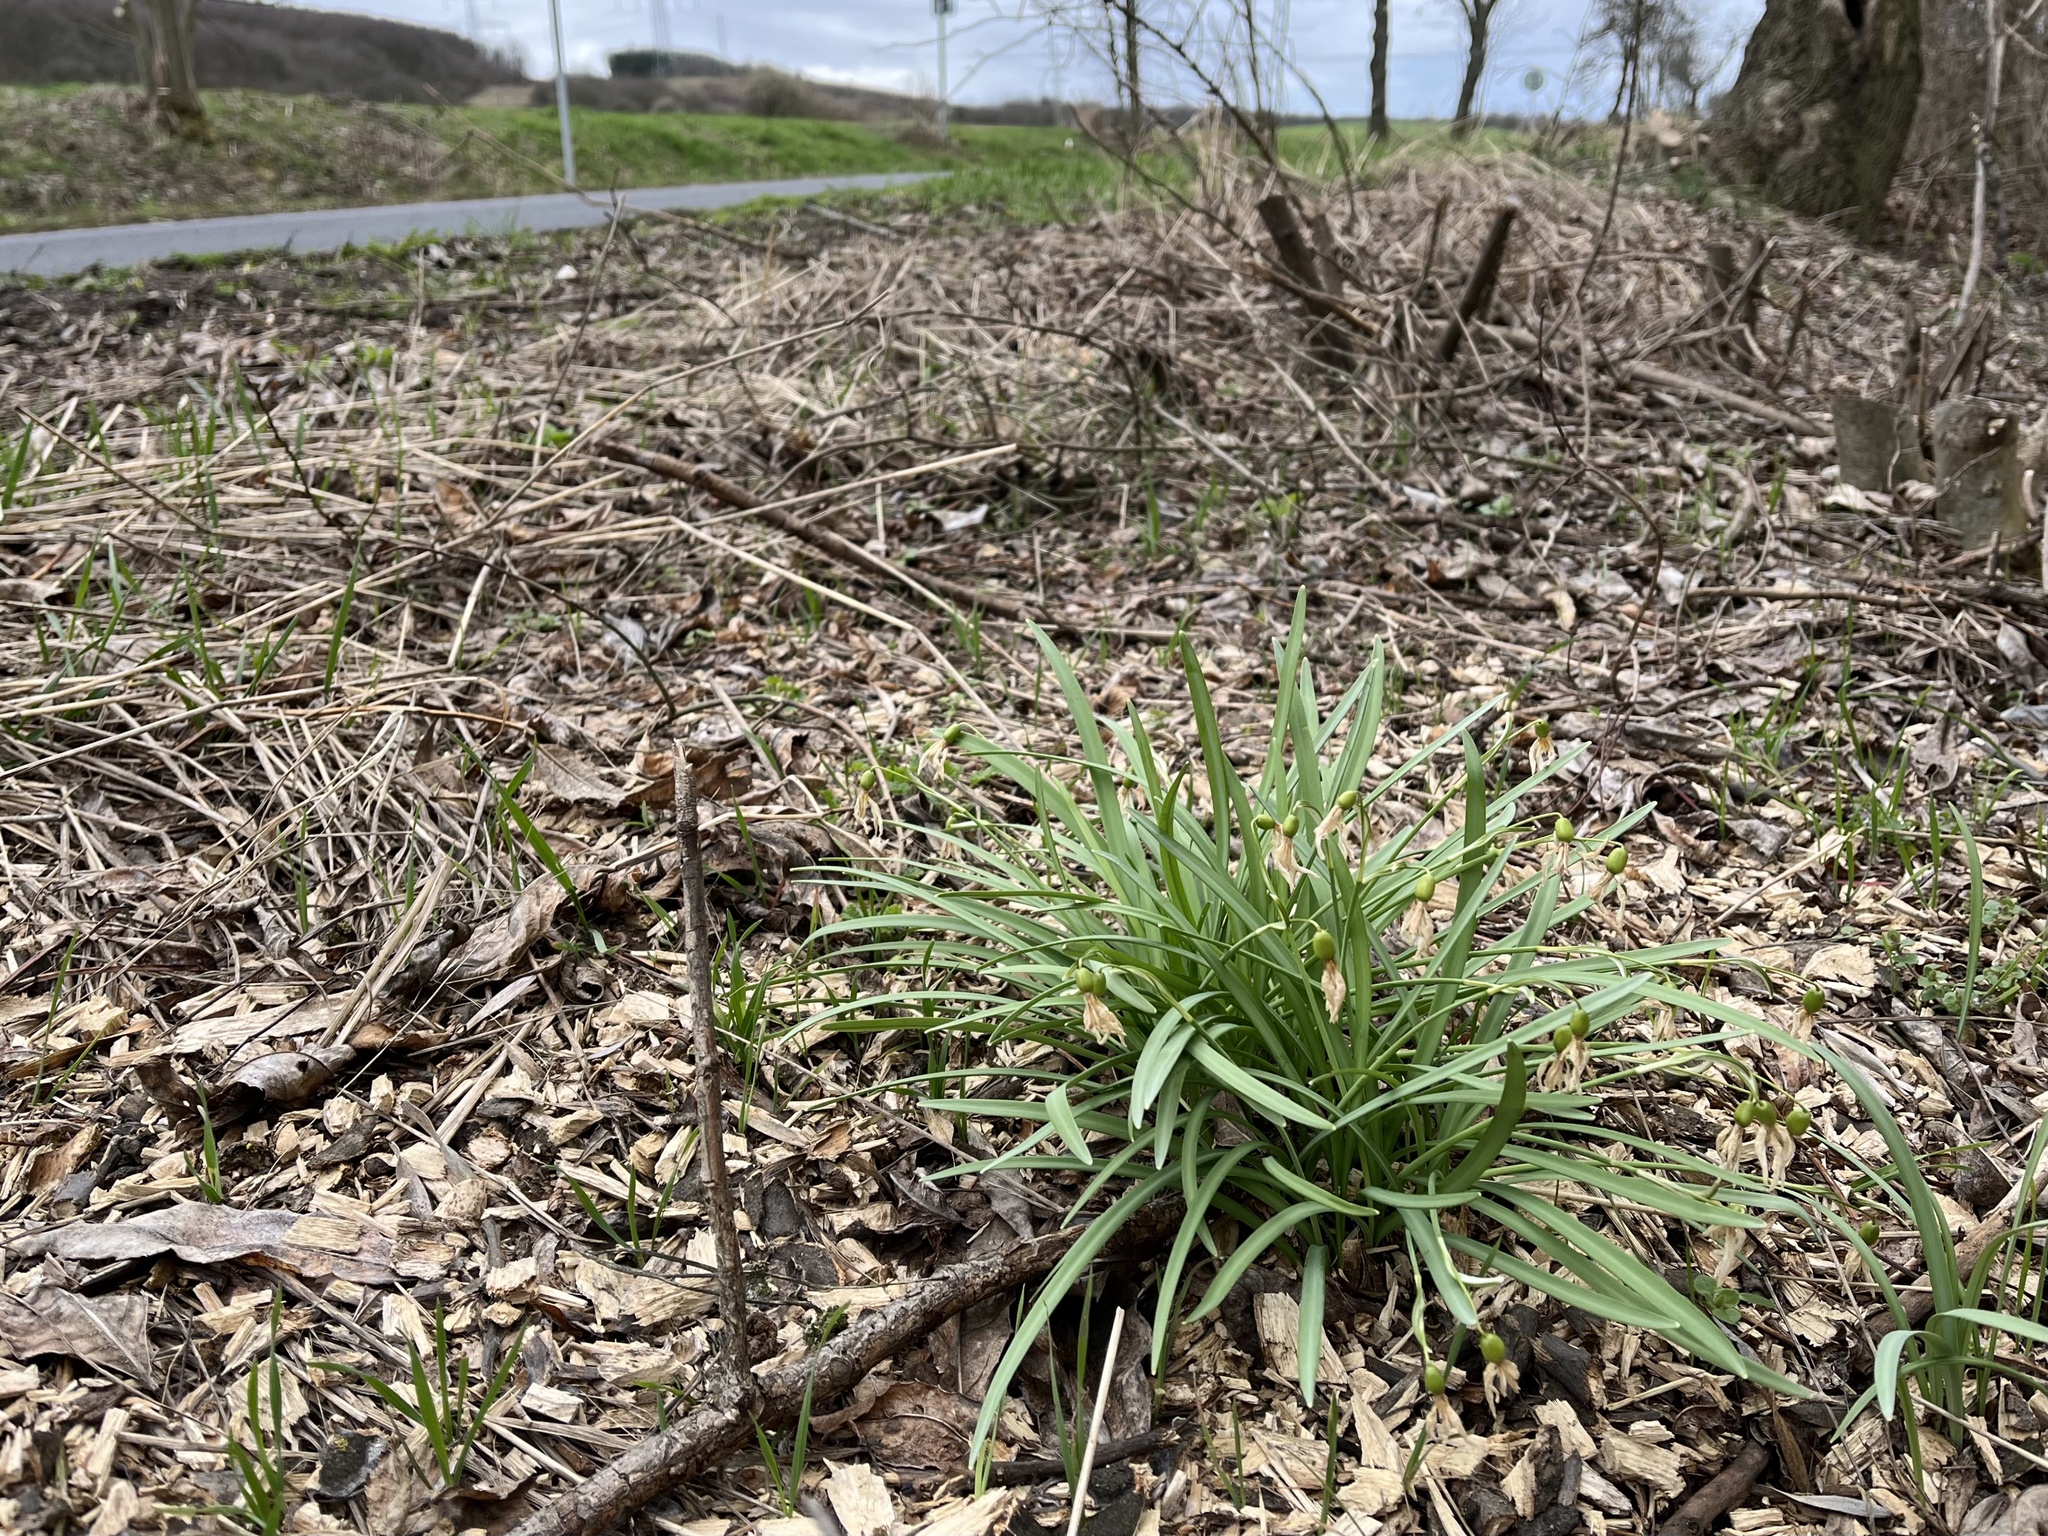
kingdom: Plantae
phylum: Tracheophyta
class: Liliopsida
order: Asparagales
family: Amaryllidaceae
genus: Galanthus
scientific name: Galanthus nivalis
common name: Snowdrop
